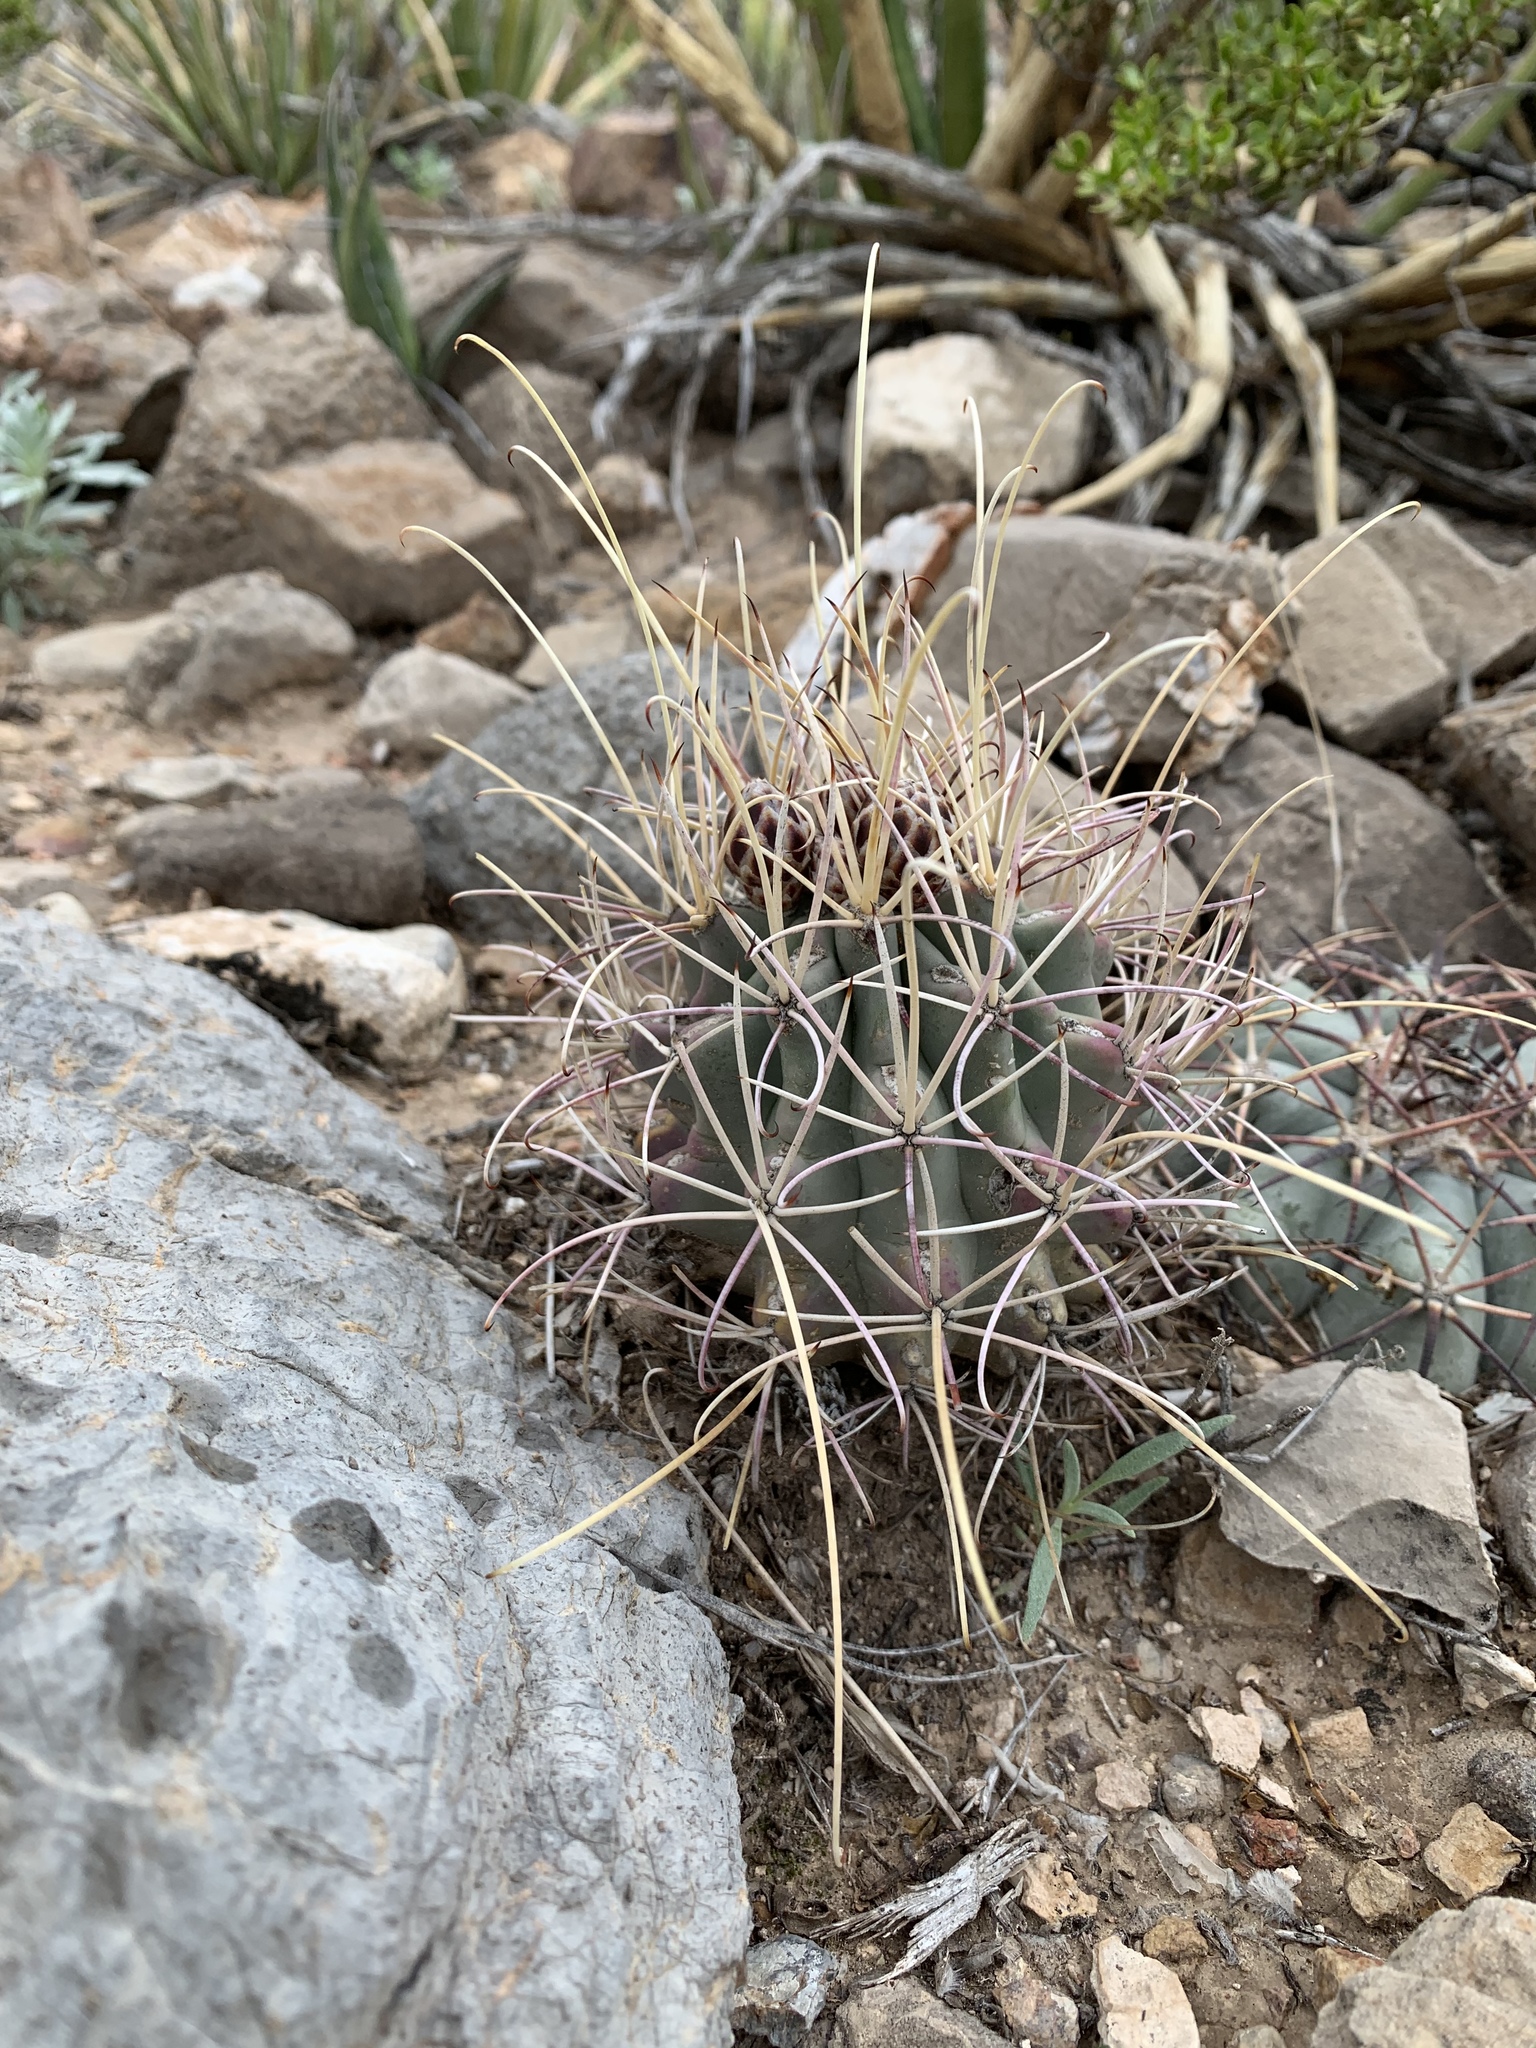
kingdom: Plantae
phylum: Tracheophyta
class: Magnoliopsida
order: Caryophyllales
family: Cactaceae
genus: Ferocactus
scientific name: Ferocactus uncinatus
